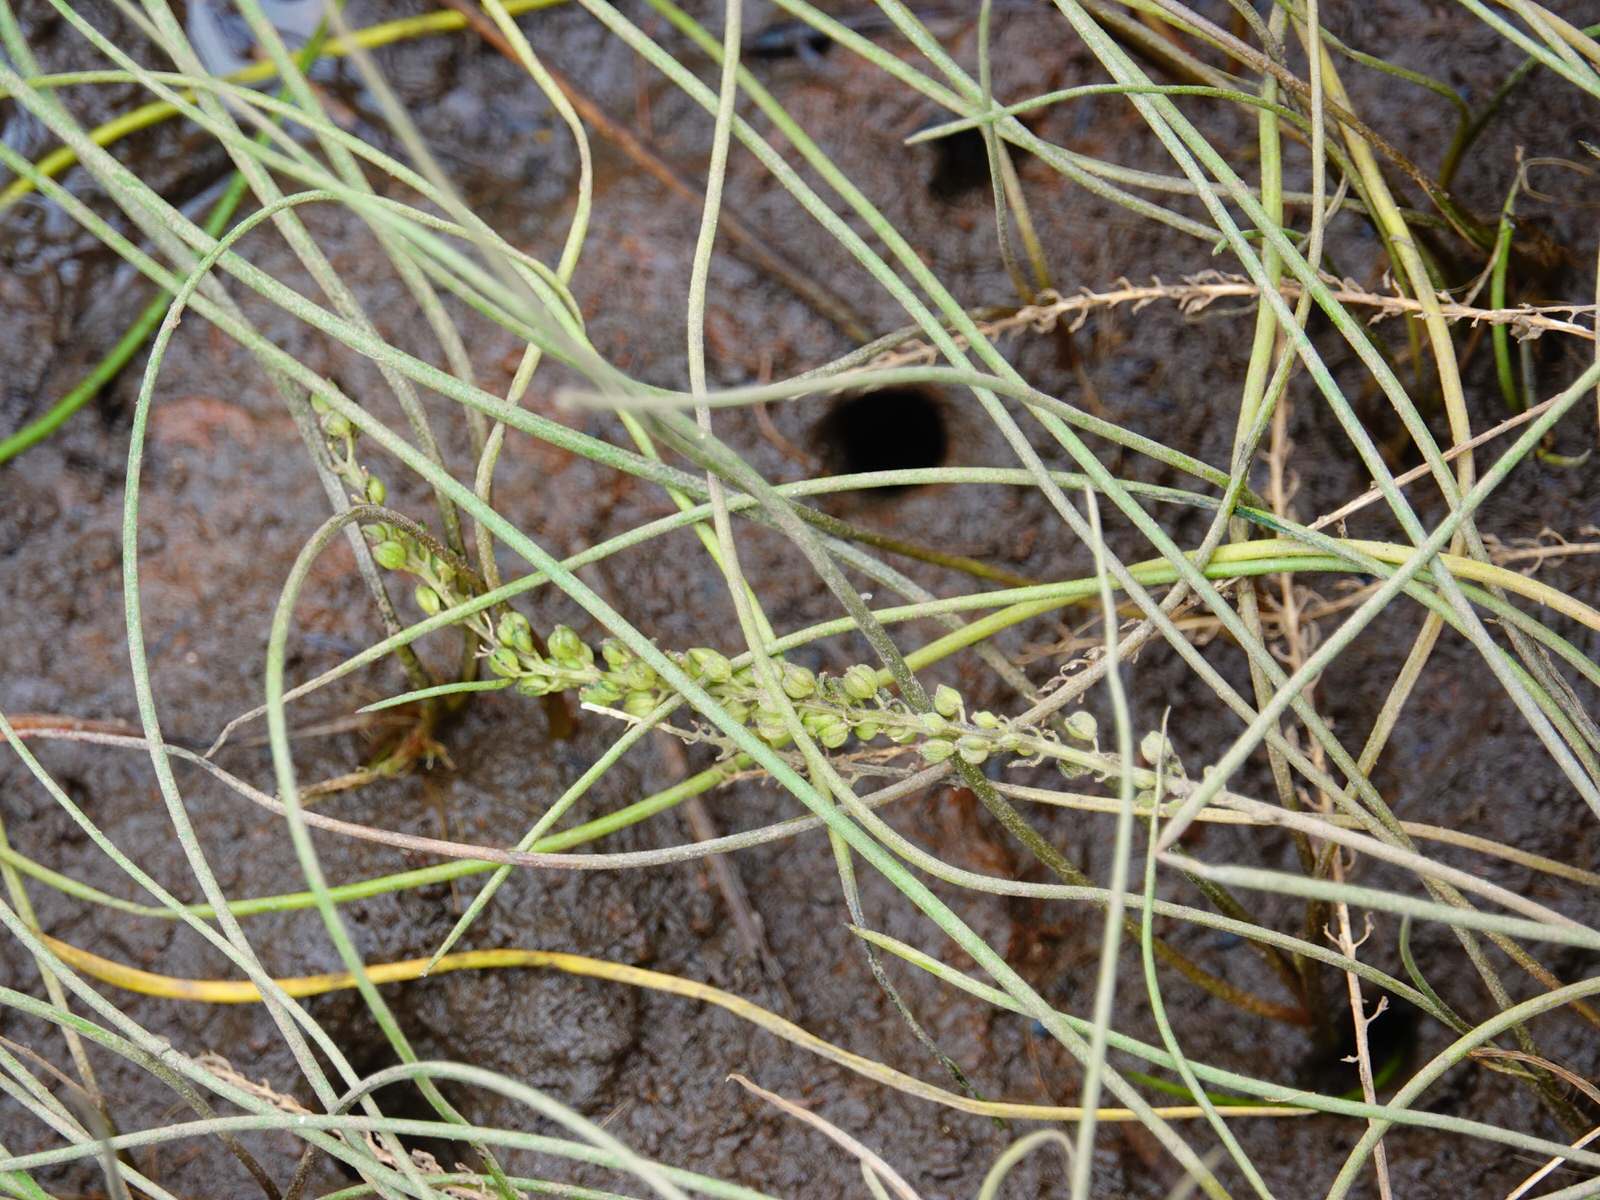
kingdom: Plantae
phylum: Tracheophyta
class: Liliopsida
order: Alismatales
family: Juncaginaceae
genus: Triglochin
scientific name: Triglochin striata
